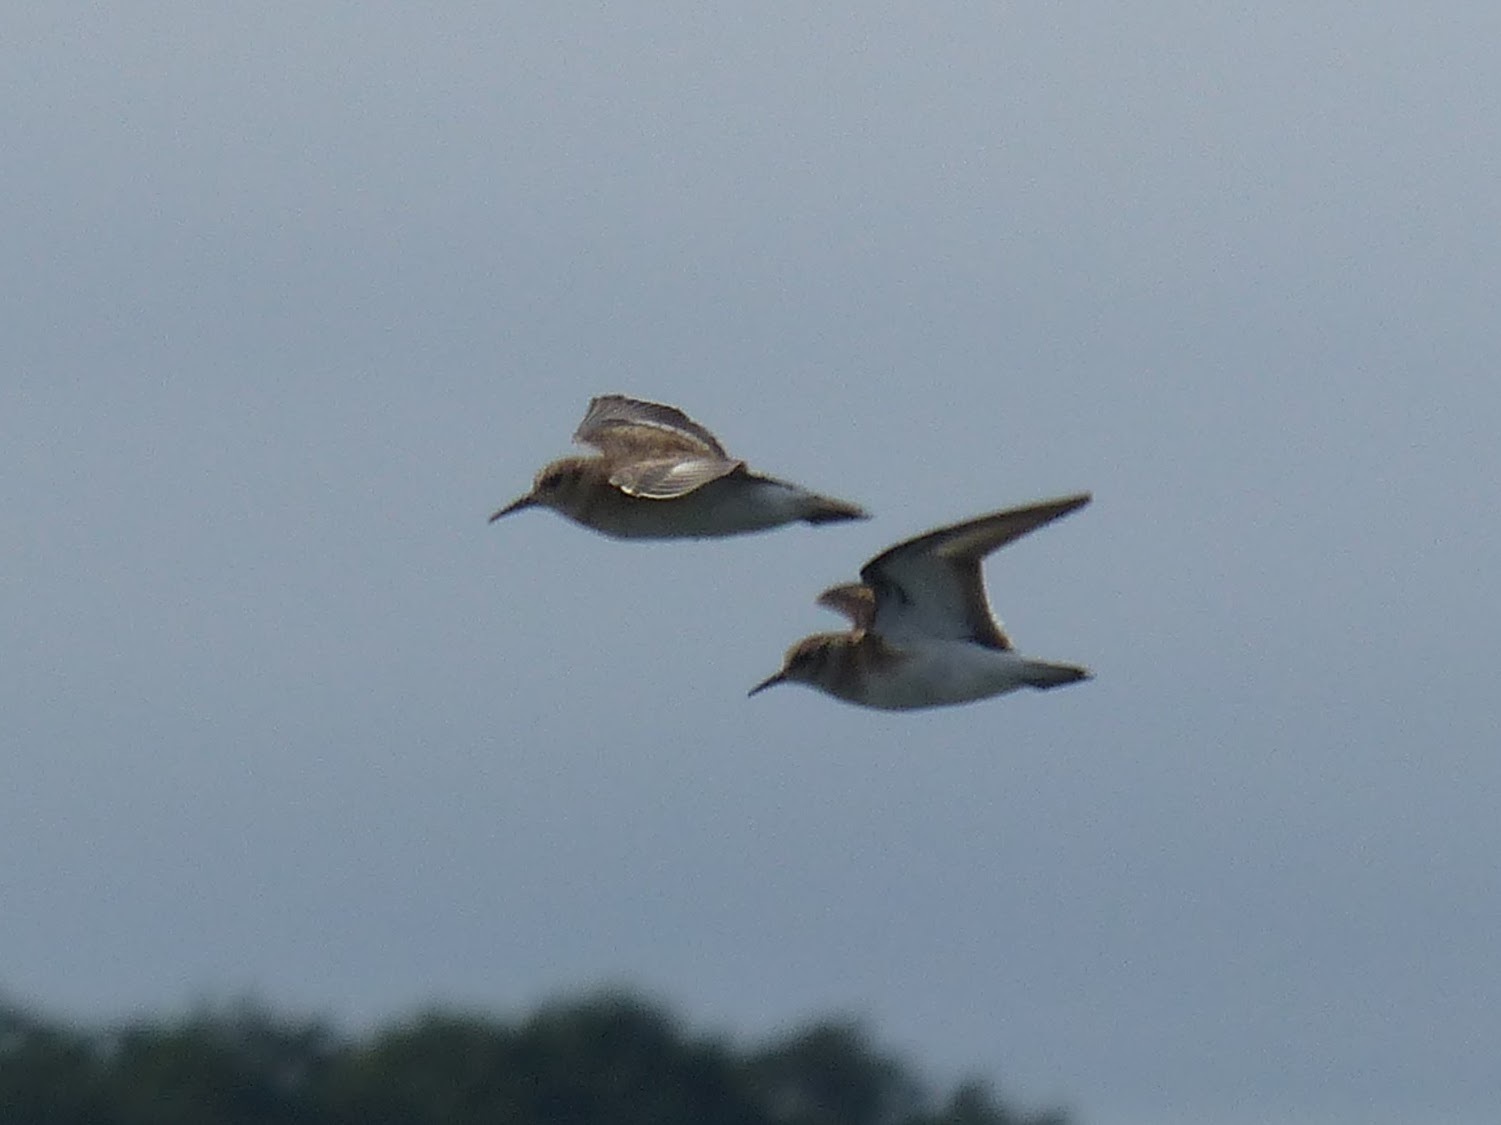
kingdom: Animalia
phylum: Chordata
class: Aves
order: Charadriiformes
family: Scolopacidae
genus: Calidris
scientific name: Calidris minutilla
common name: Least sandpiper
